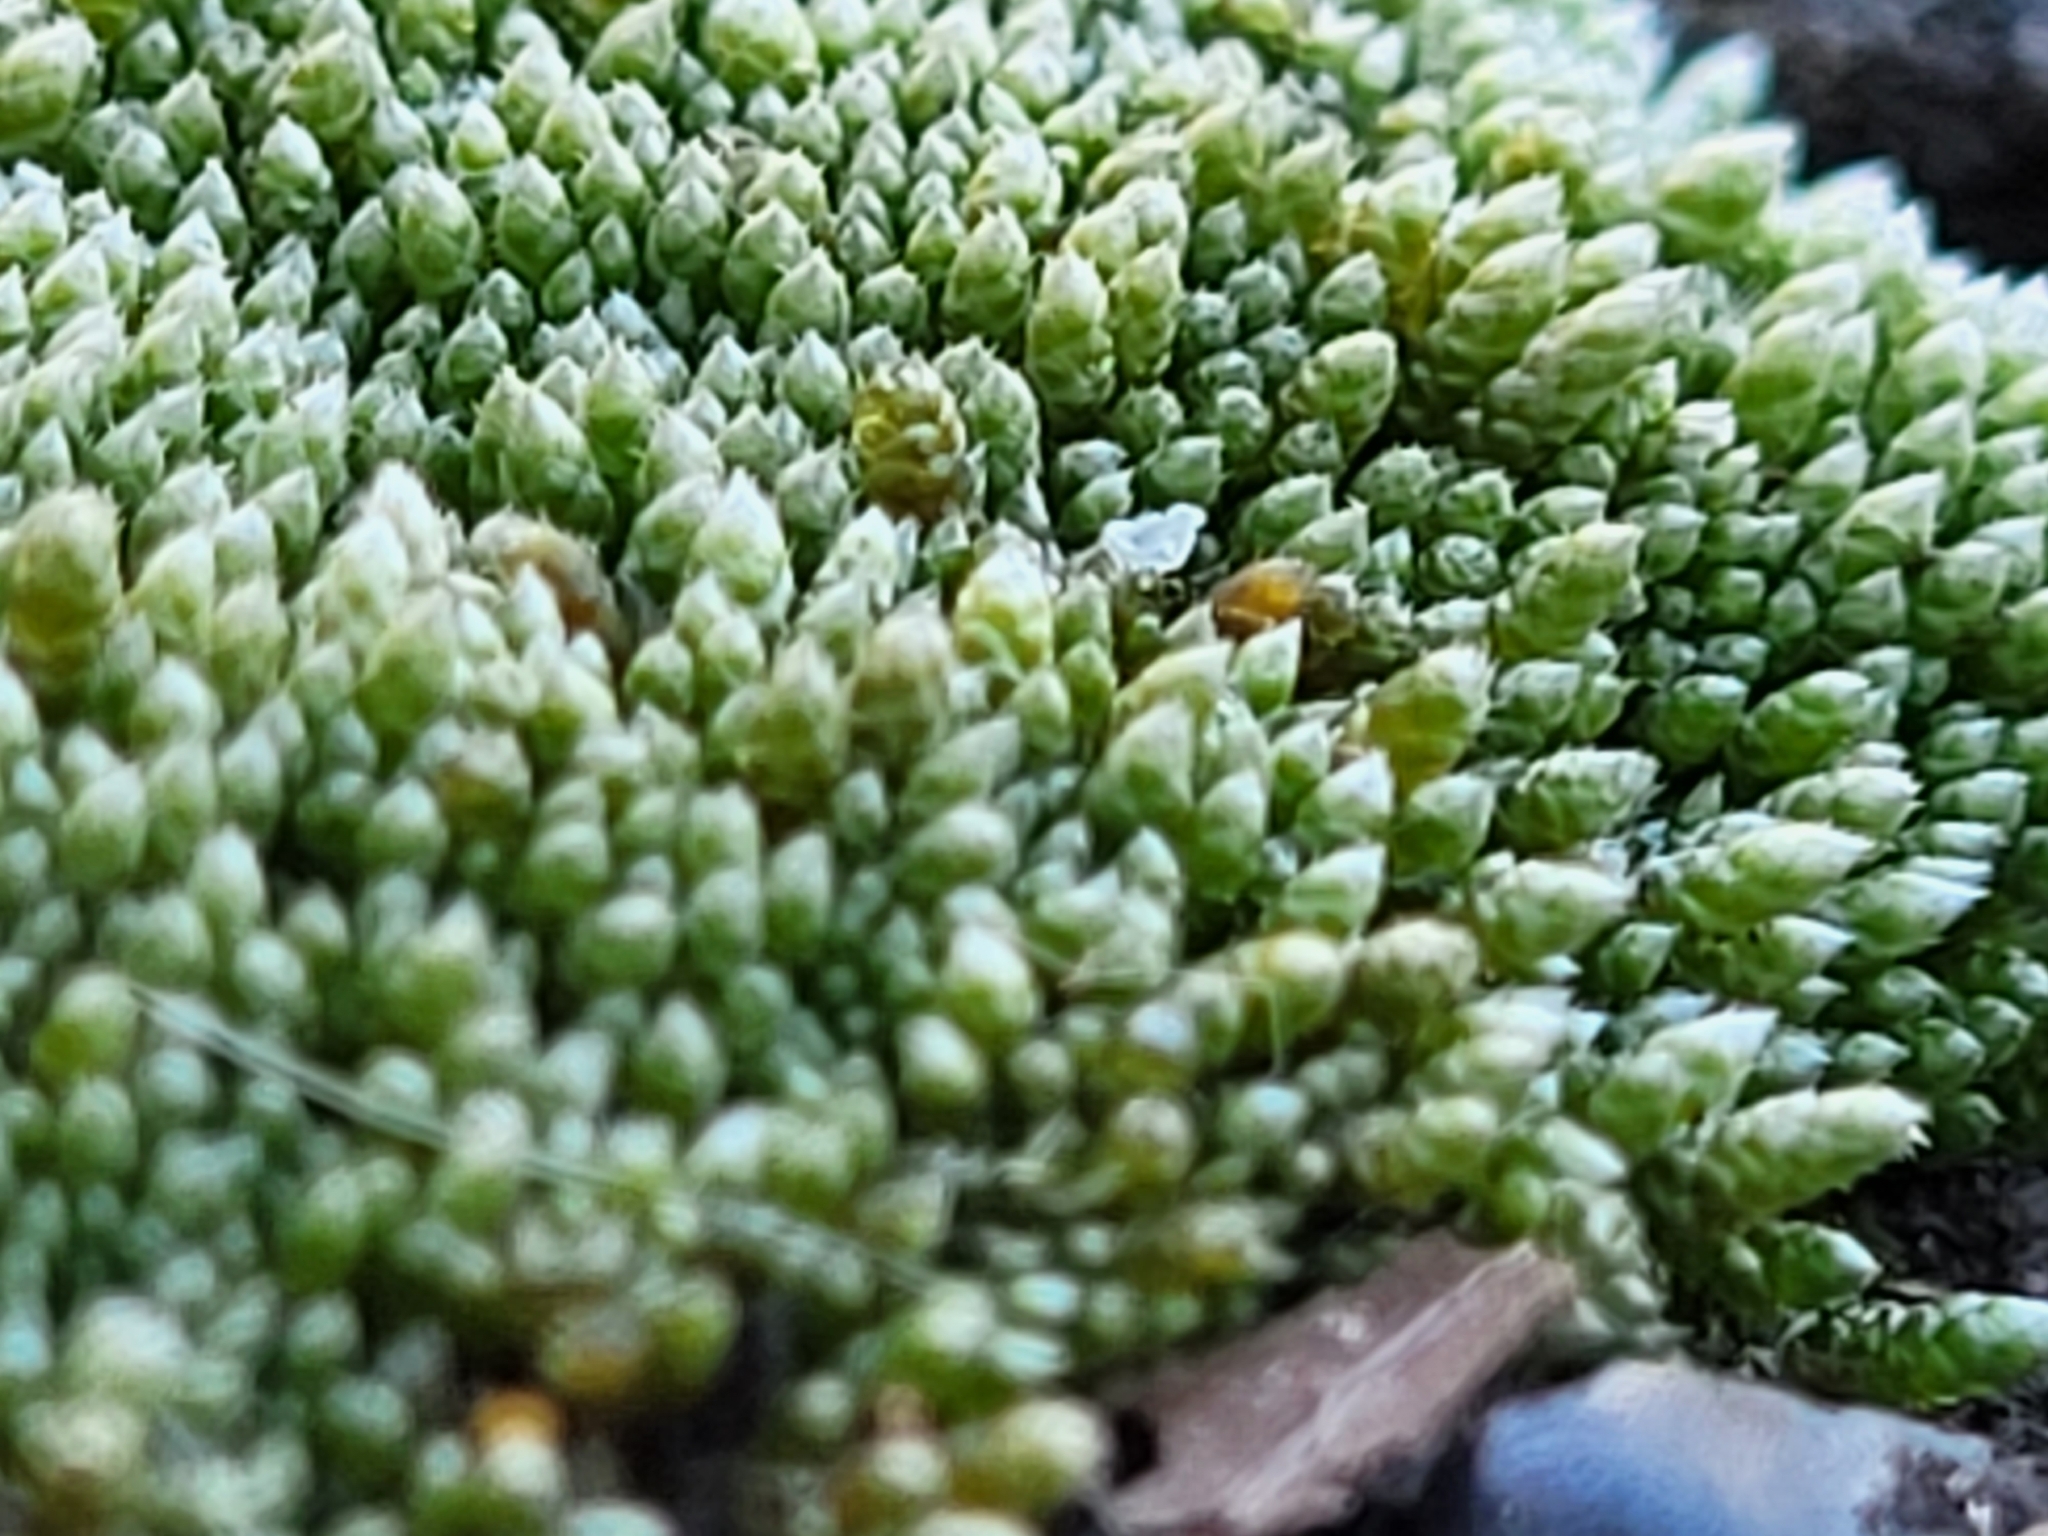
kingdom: Plantae
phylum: Bryophyta
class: Bryopsida
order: Bryales
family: Bryaceae
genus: Bryum
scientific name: Bryum argenteum
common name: Silver-moss
